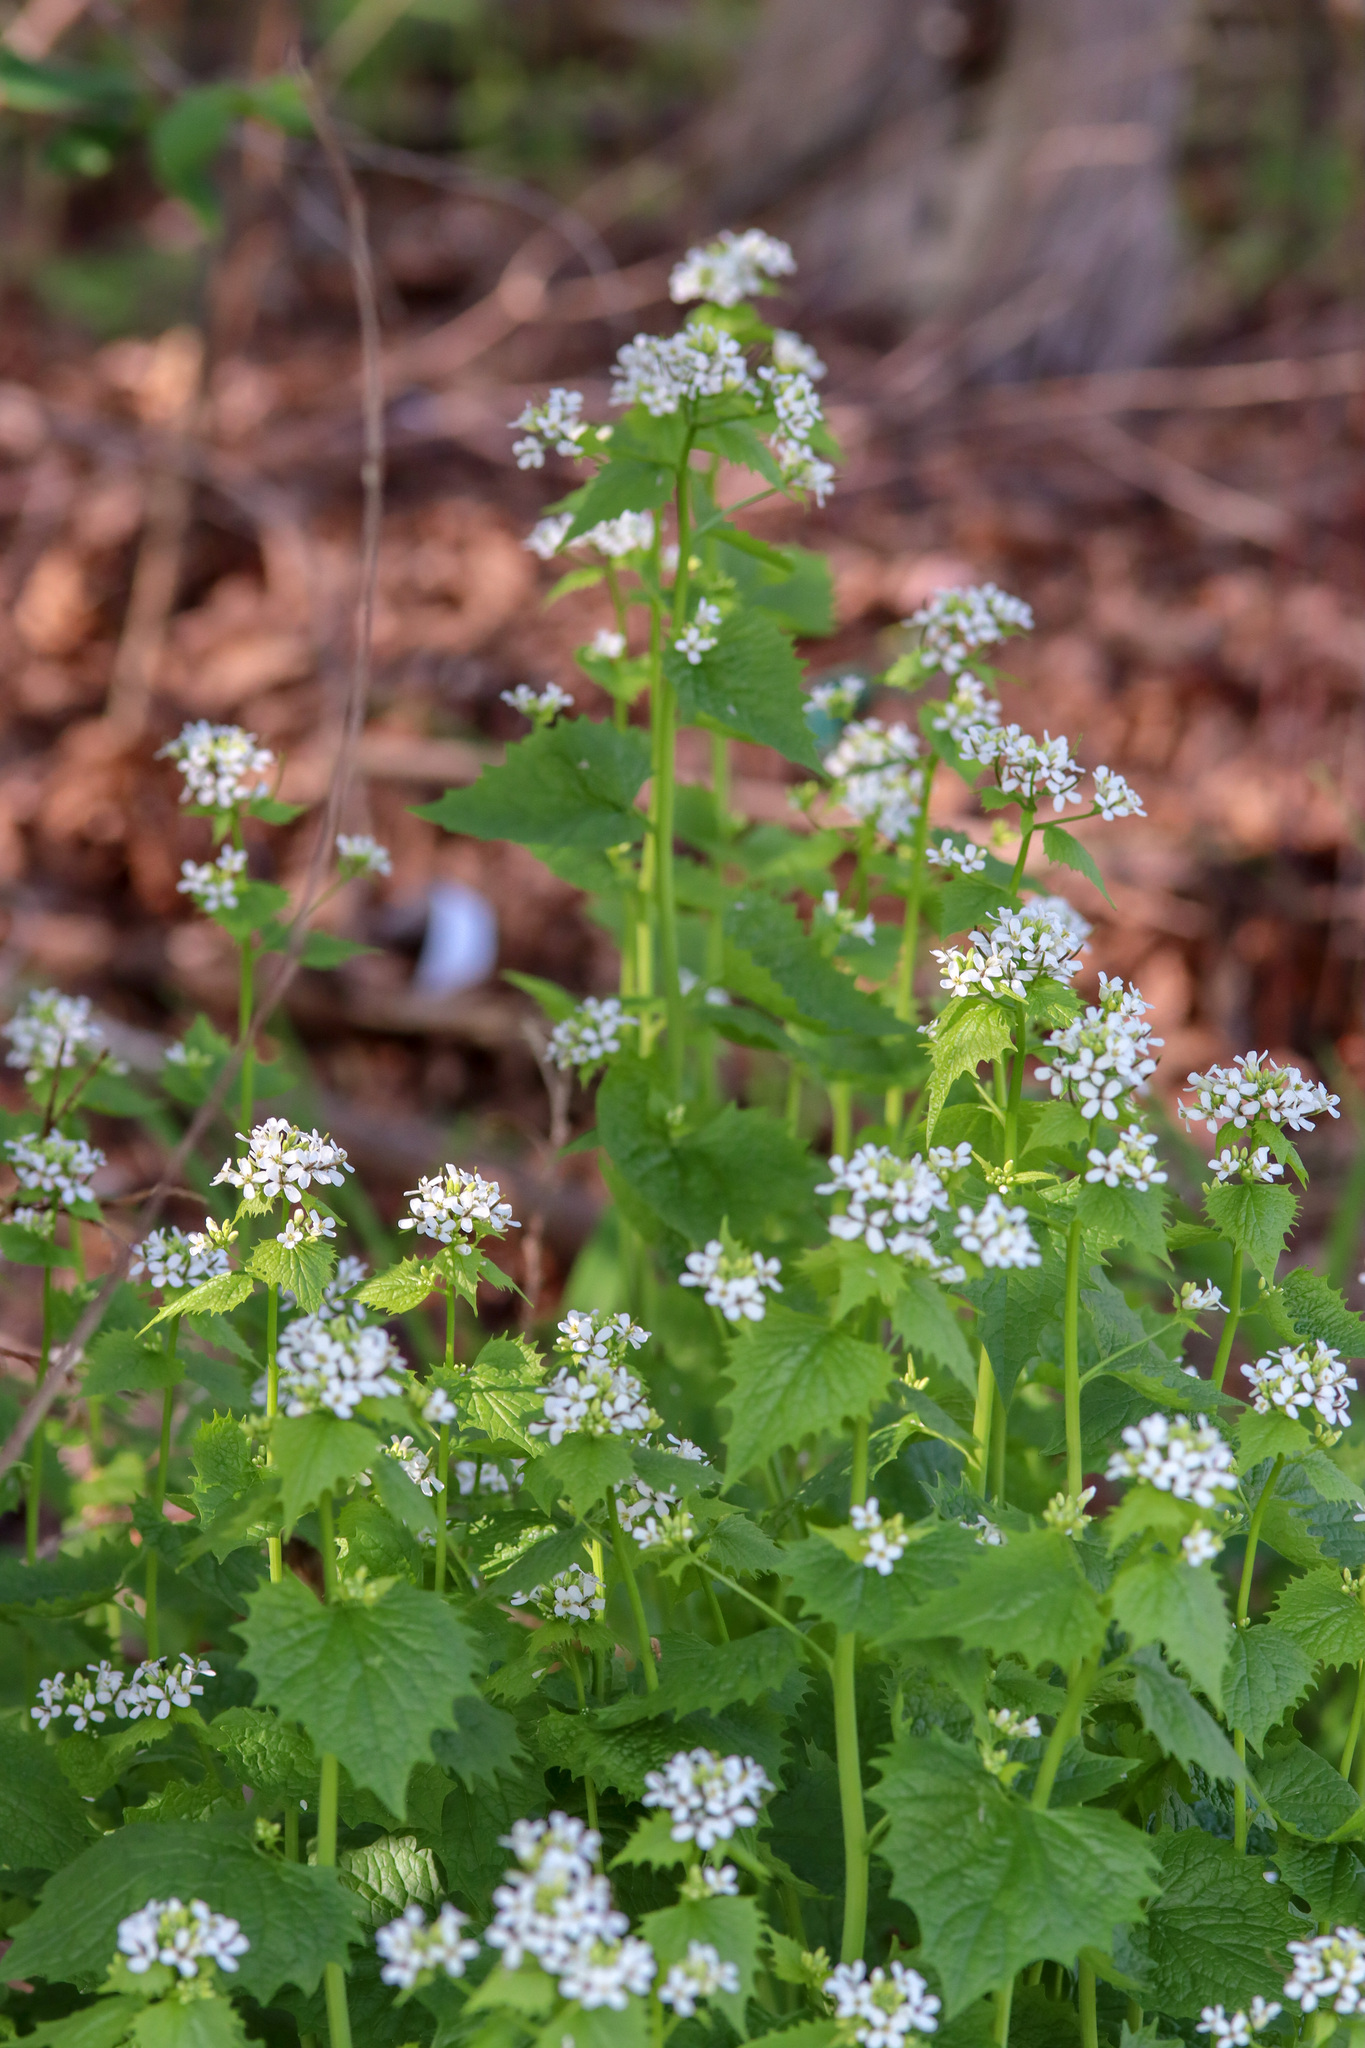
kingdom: Plantae
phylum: Tracheophyta
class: Magnoliopsida
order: Brassicales
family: Brassicaceae
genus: Alliaria
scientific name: Alliaria petiolata
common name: Garlic mustard
